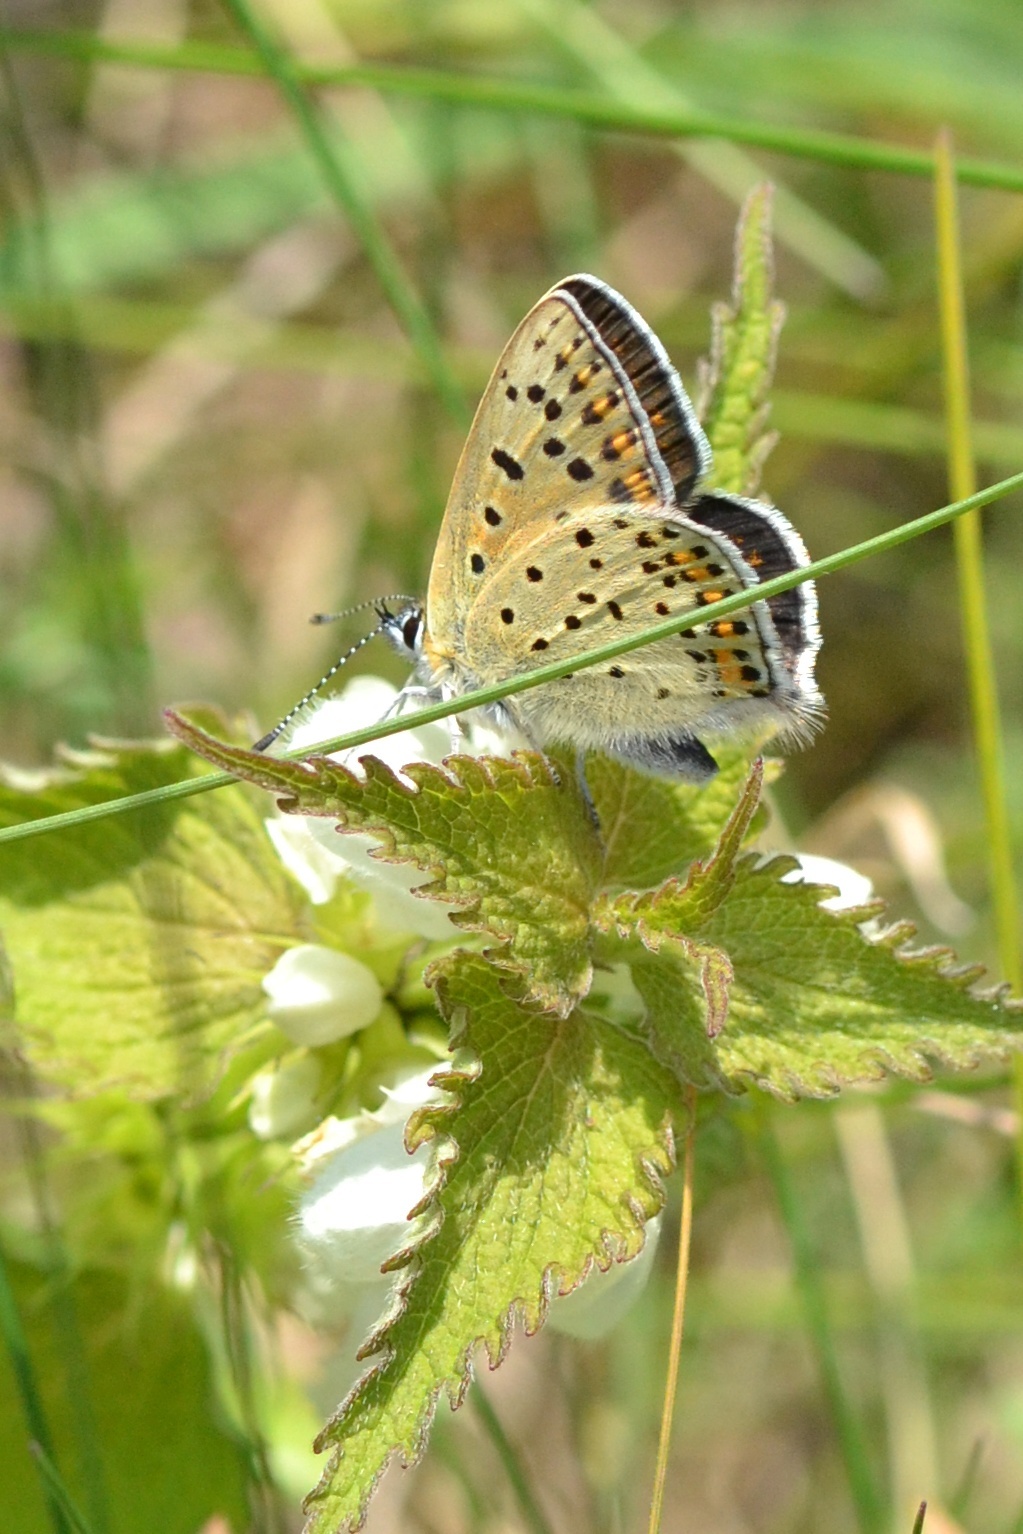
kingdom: Animalia
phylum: Arthropoda
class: Insecta
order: Lepidoptera
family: Lycaenidae
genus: Loweia
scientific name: Loweia tityrus
